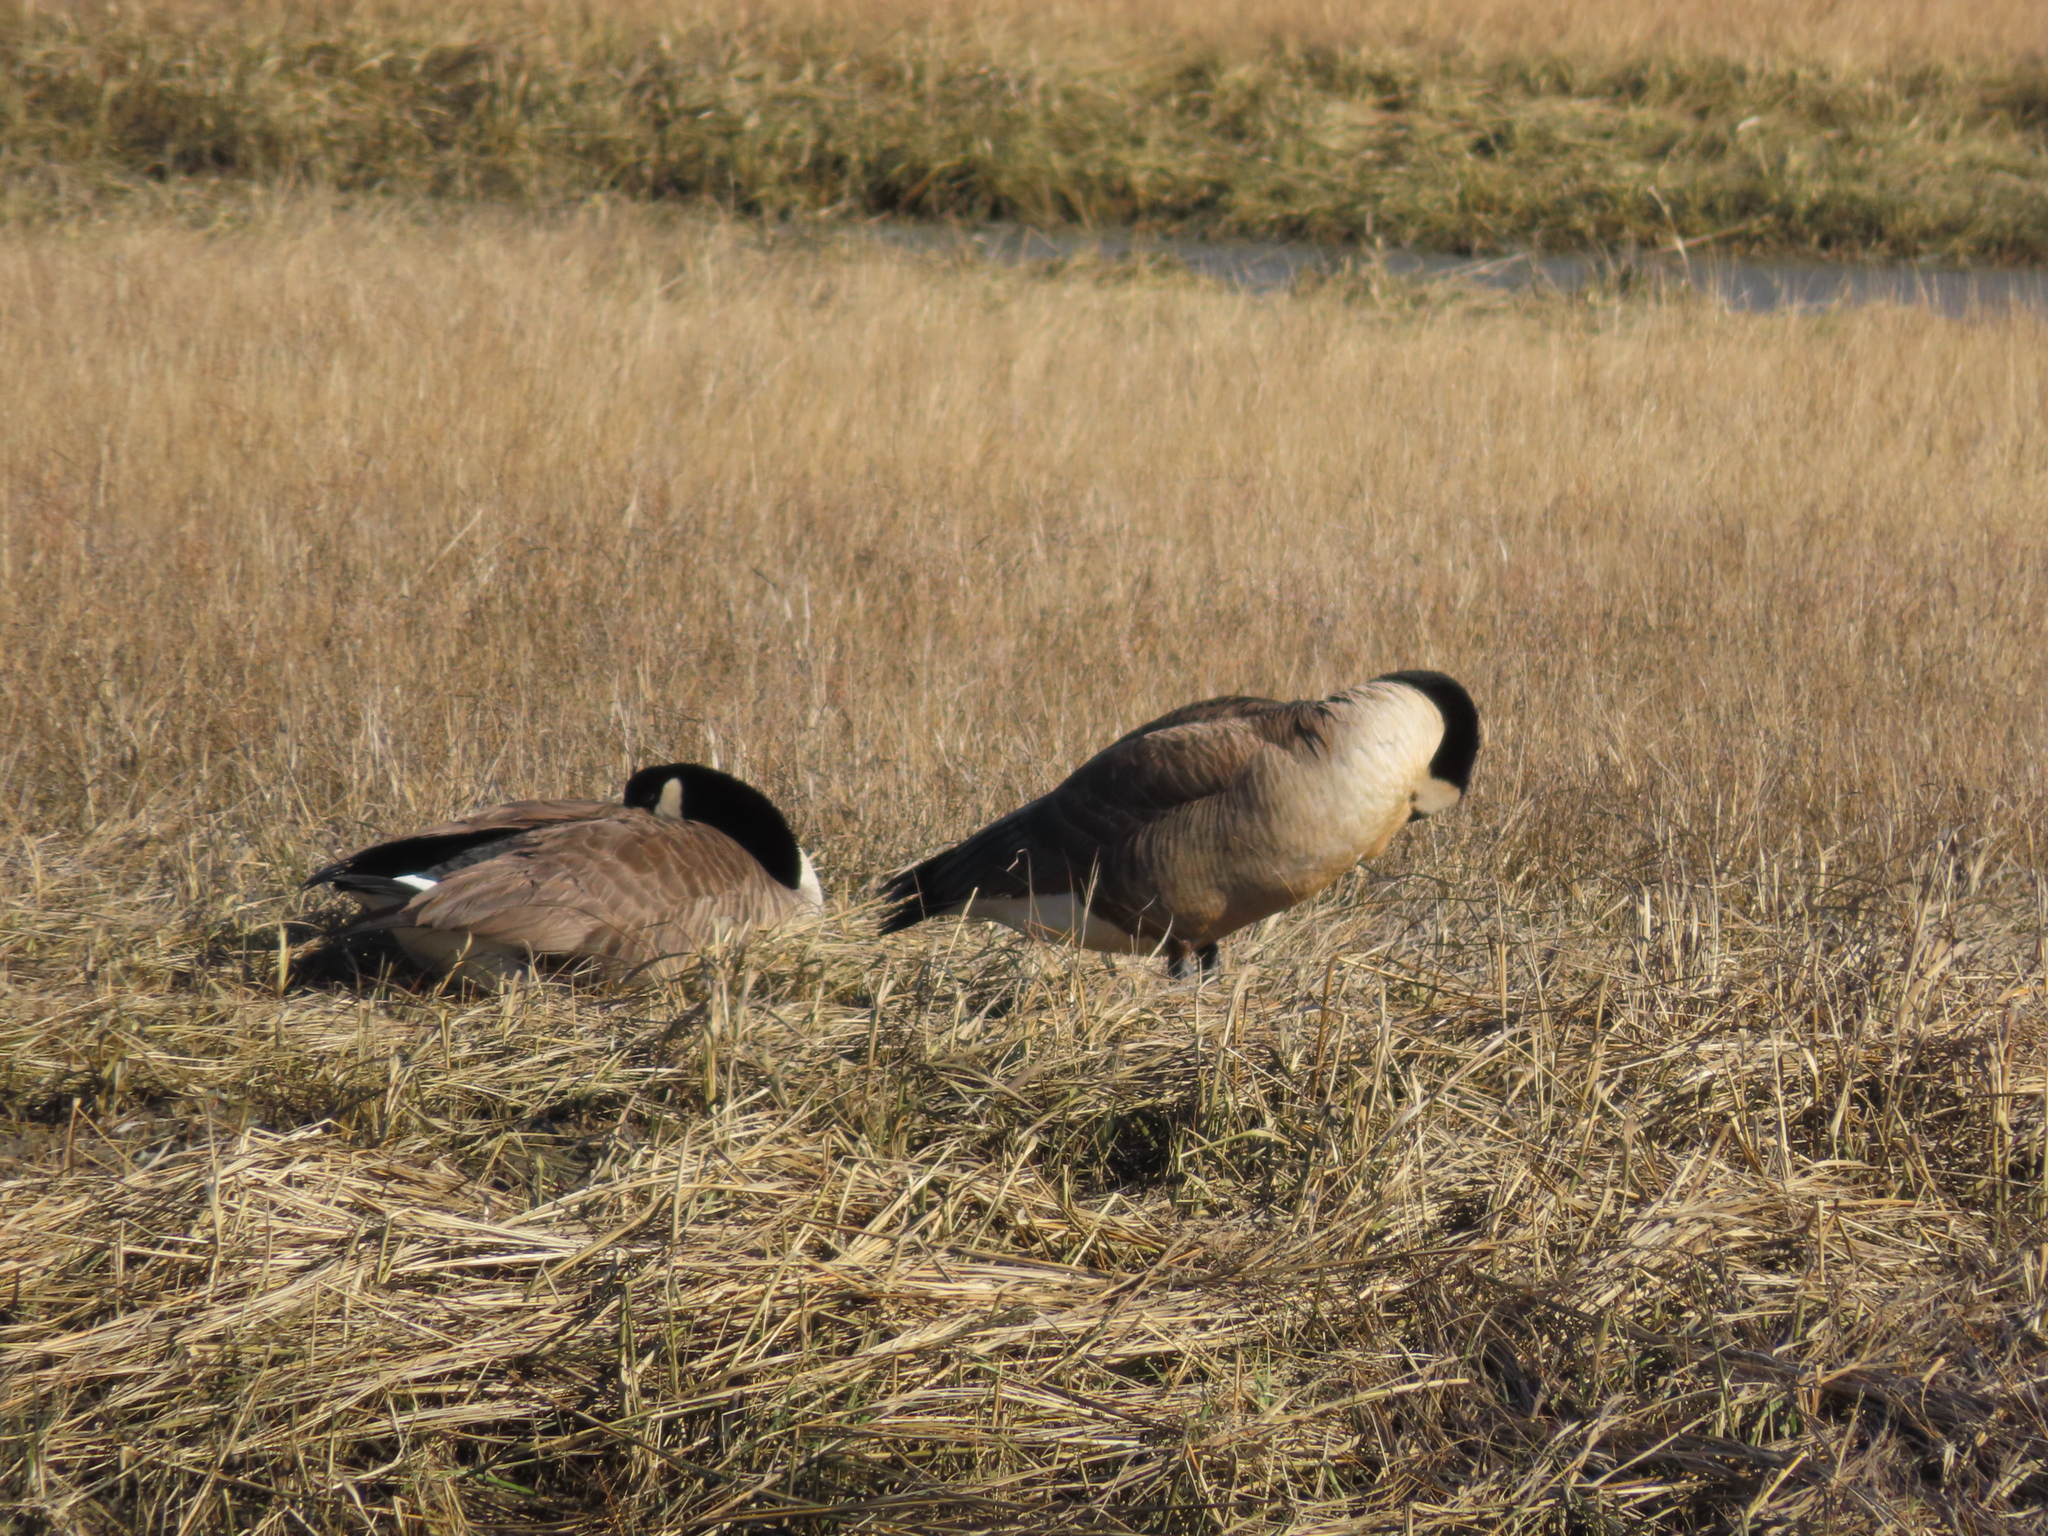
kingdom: Animalia
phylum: Chordata
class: Aves
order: Anseriformes
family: Anatidae
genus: Branta
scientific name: Branta canadensis
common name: Canada goose
